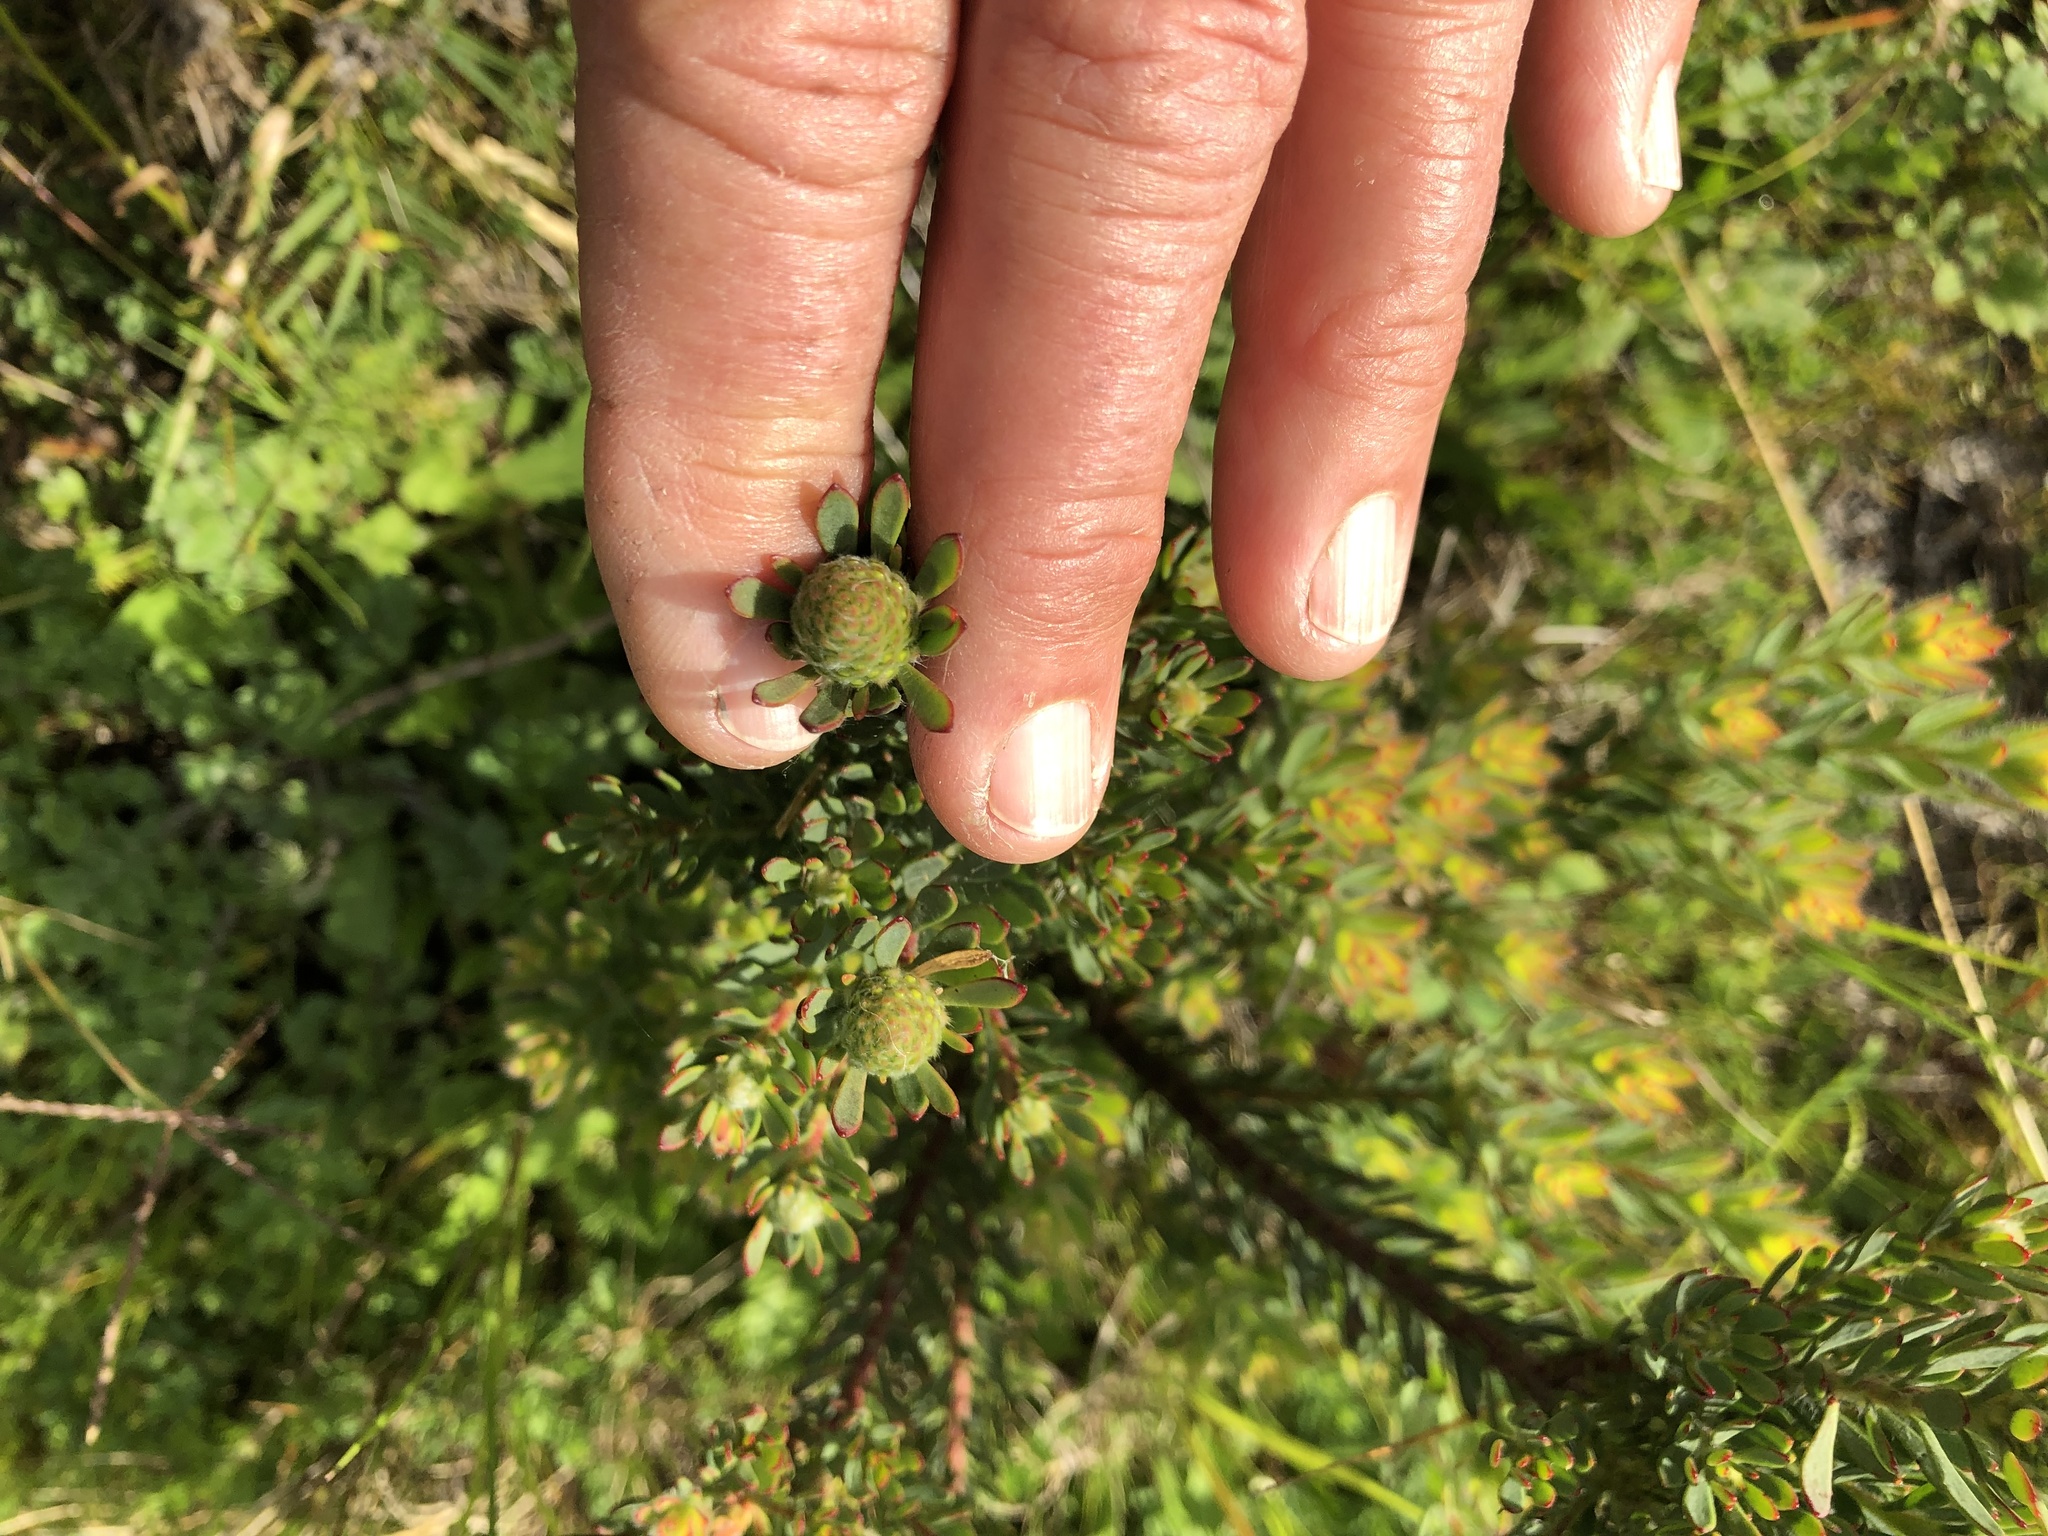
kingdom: Plantae
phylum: Tracheophyta
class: Magnoliopsida
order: Proteales
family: Proteaceae
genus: Leucadendron
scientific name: Leucadendron levisanus
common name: Cape flats conebush
